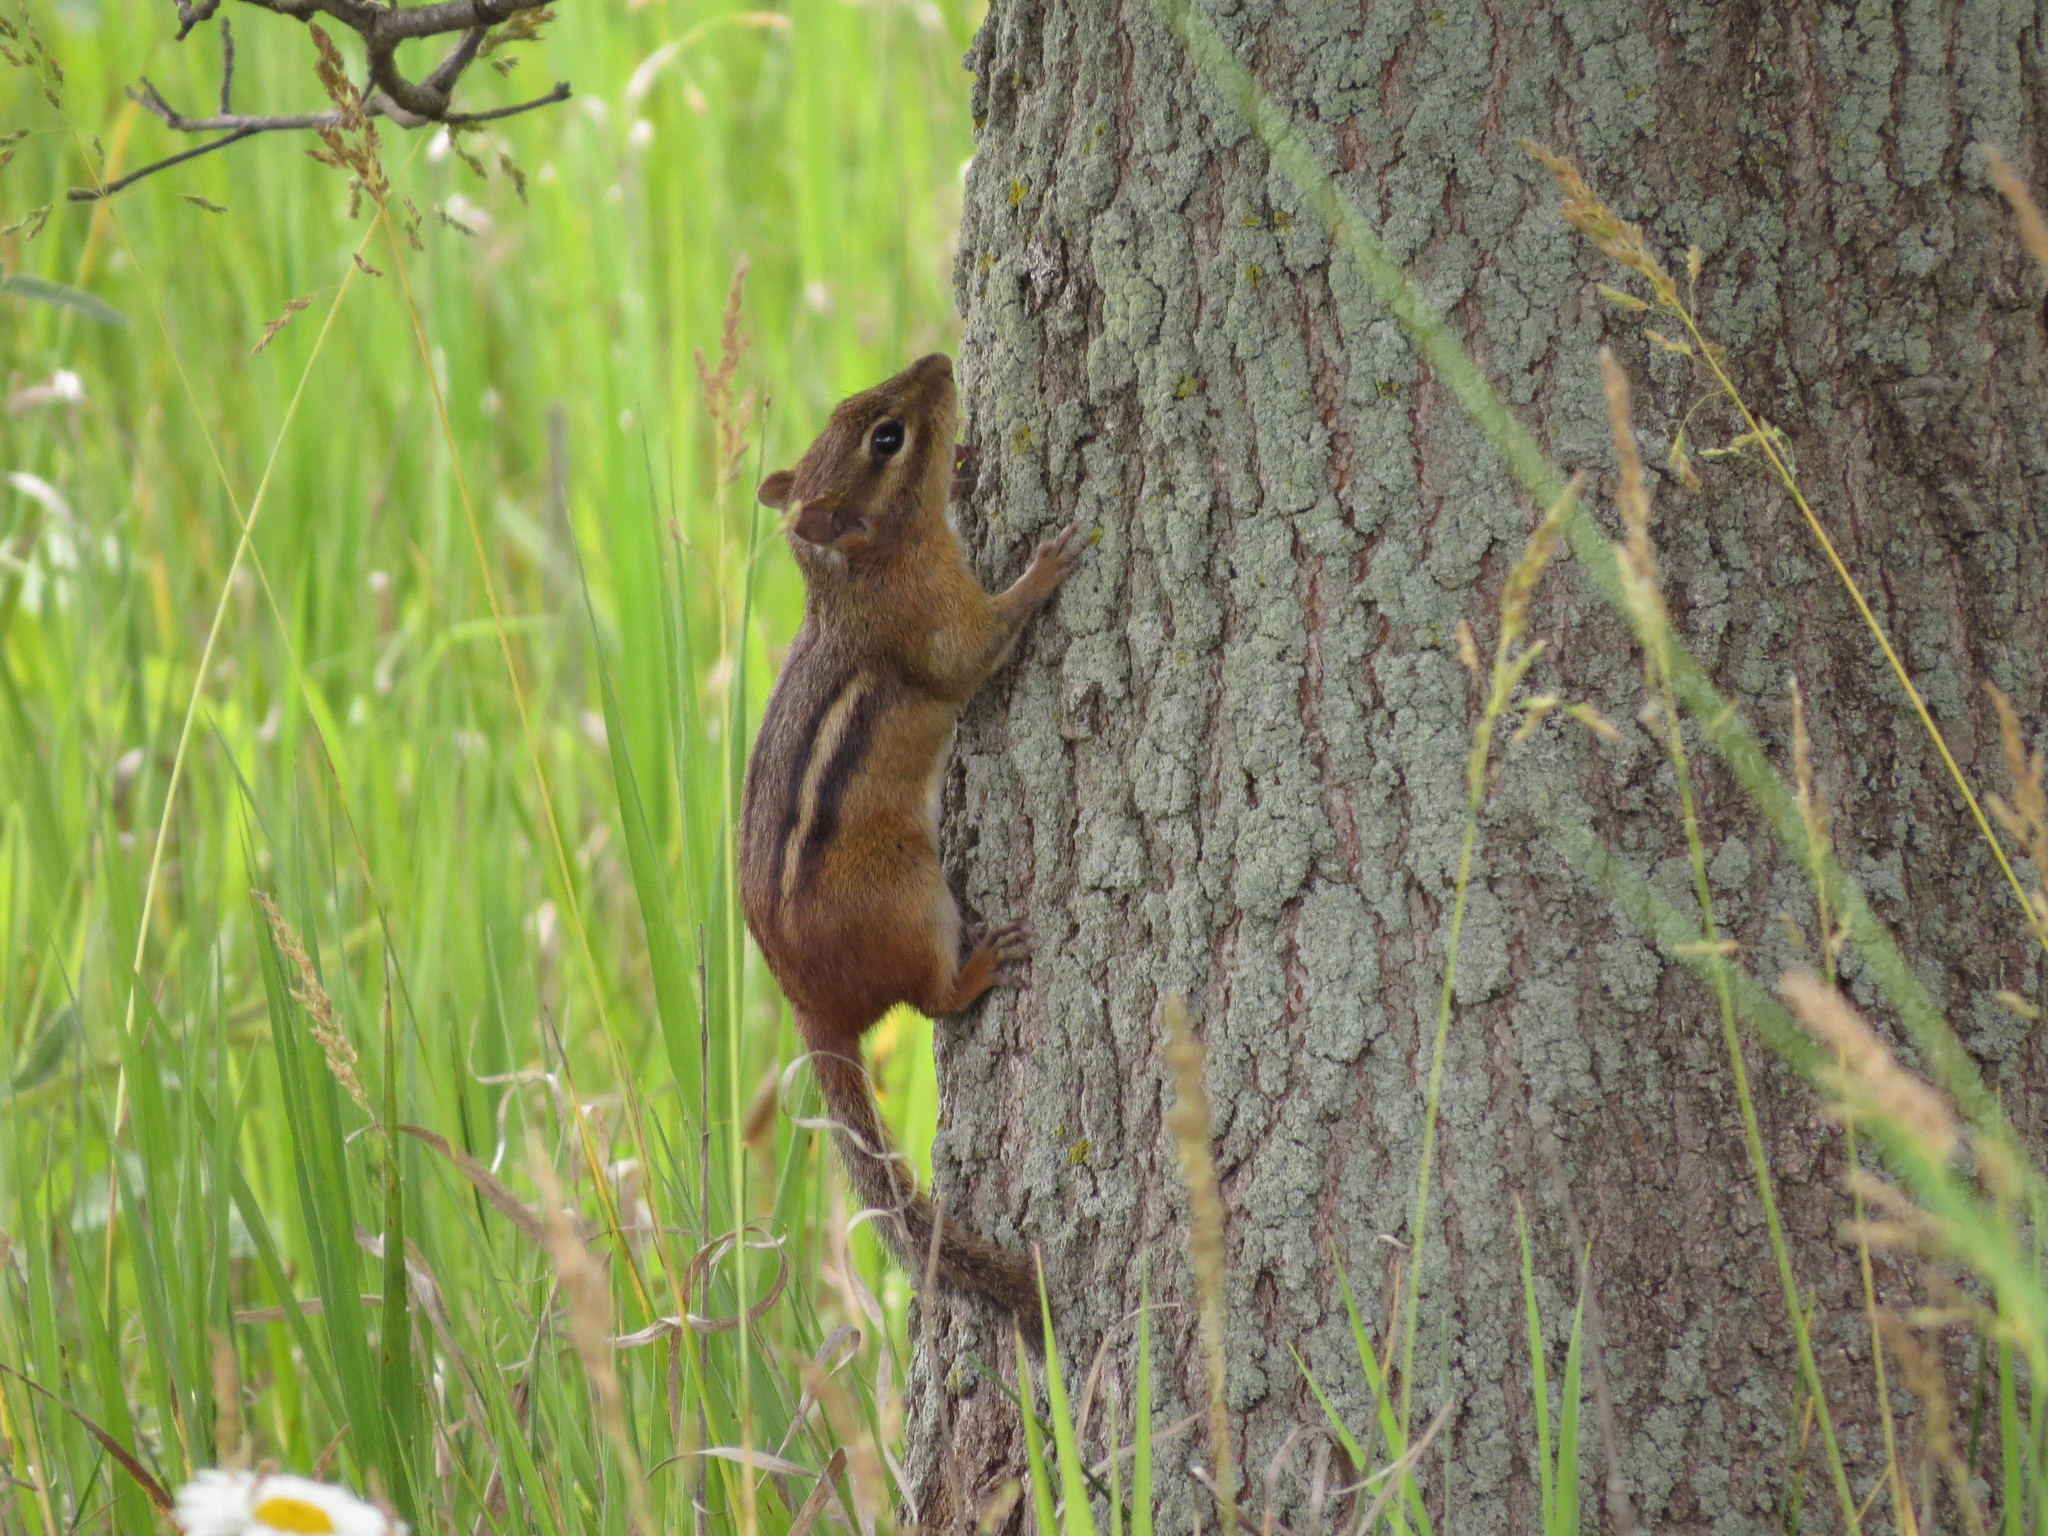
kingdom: Animalia
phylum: Chordata
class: Mammalia
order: Rodentia
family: Sciuridae
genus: Tamias
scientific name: Tamias striatus
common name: Eastern chipmunk
